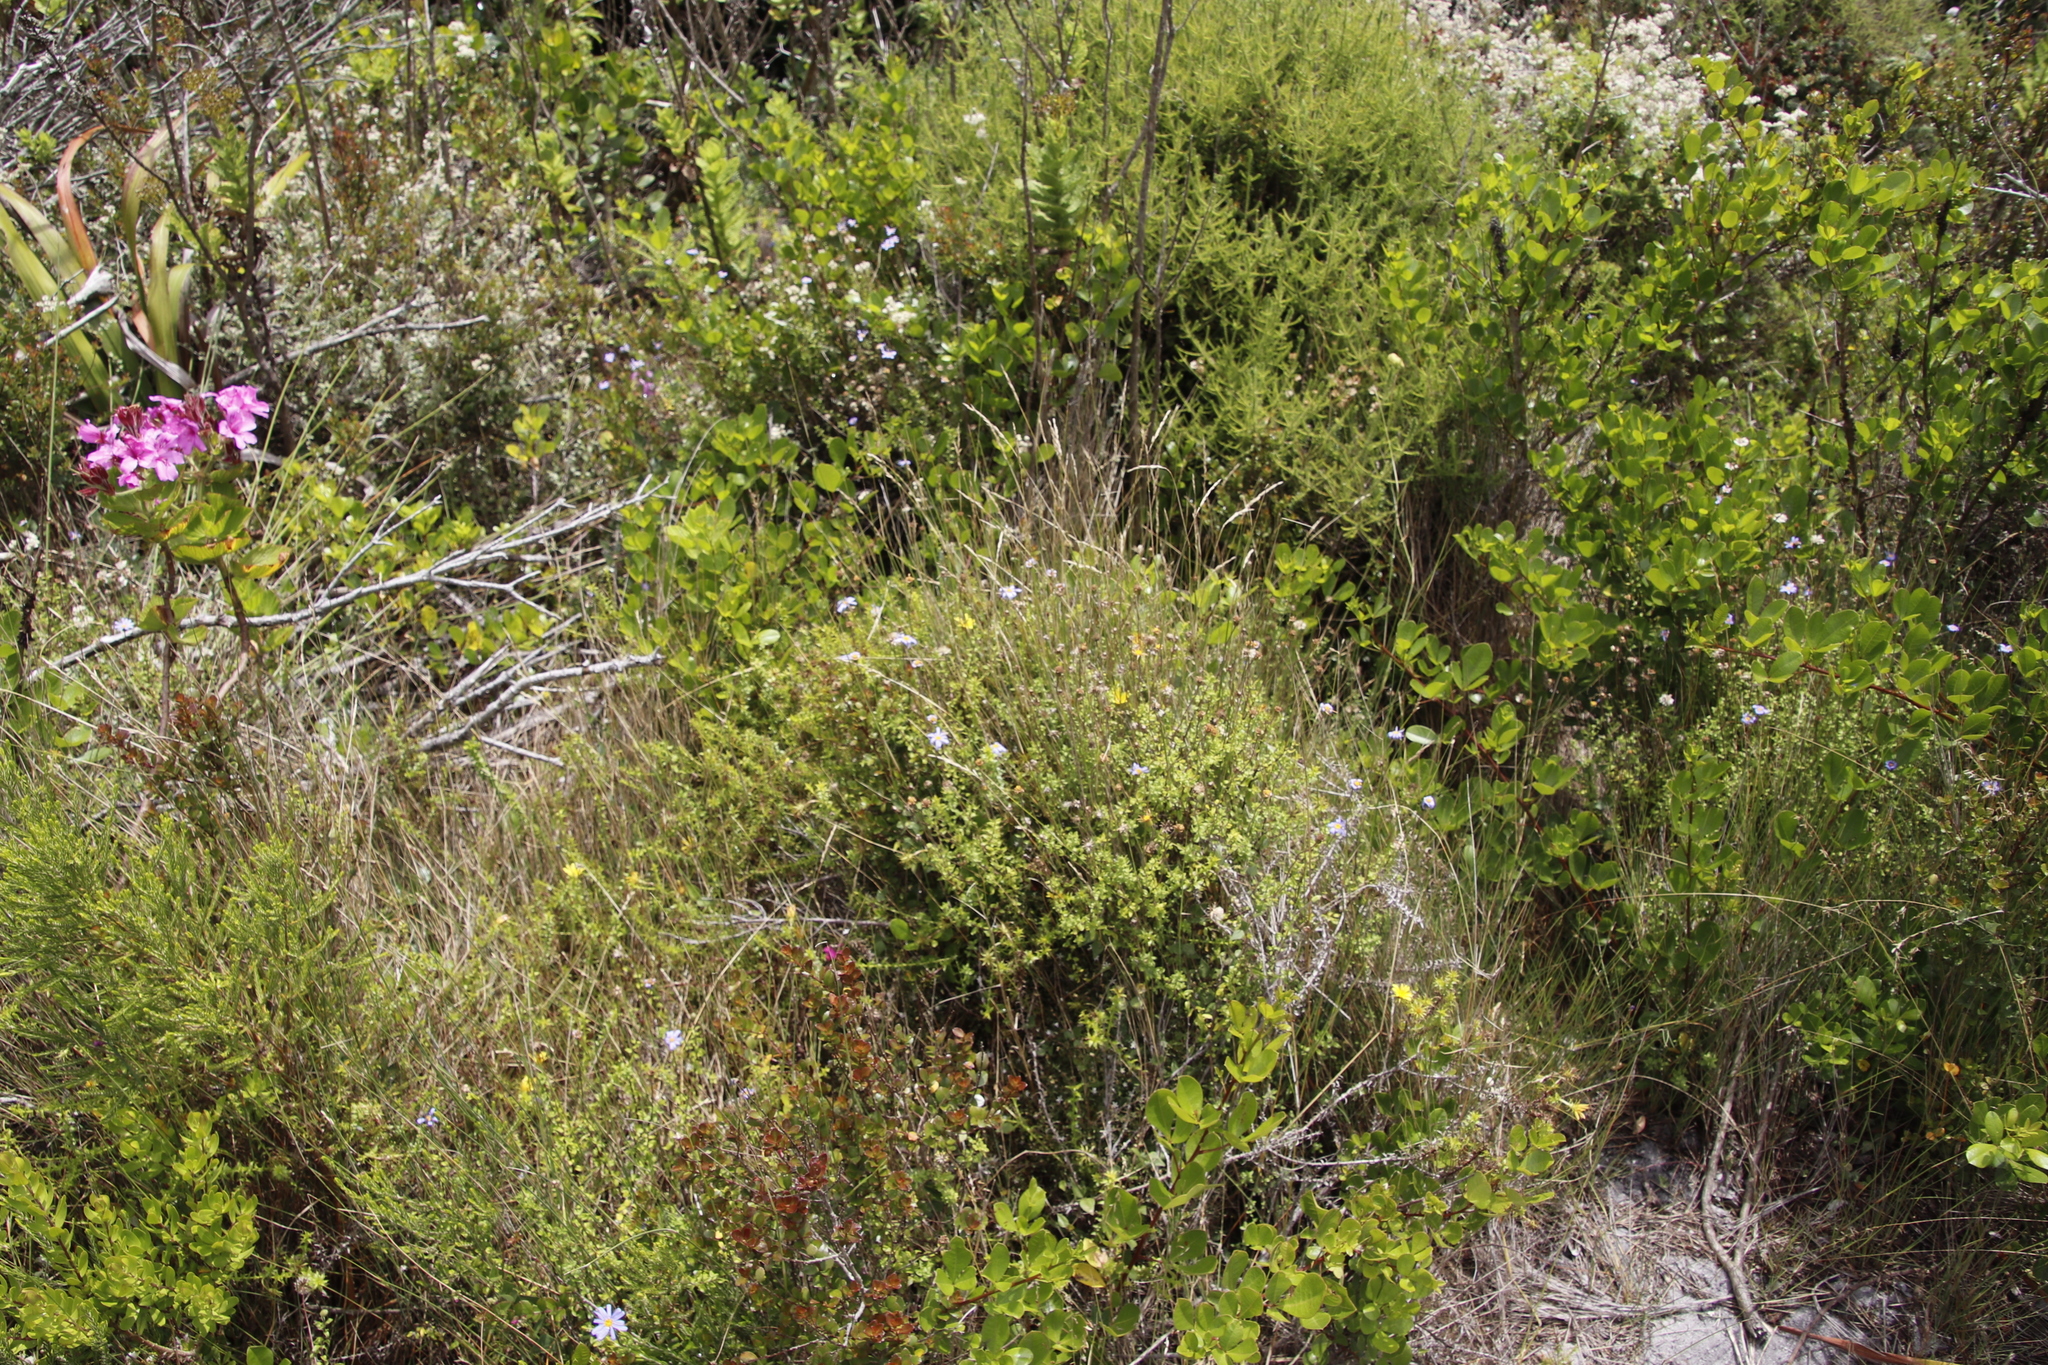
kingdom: Plantae
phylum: Tracheophyta
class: Magnoliopsida
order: Asterales
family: Asteraceae
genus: Felicia
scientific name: Felicia aethiopica
